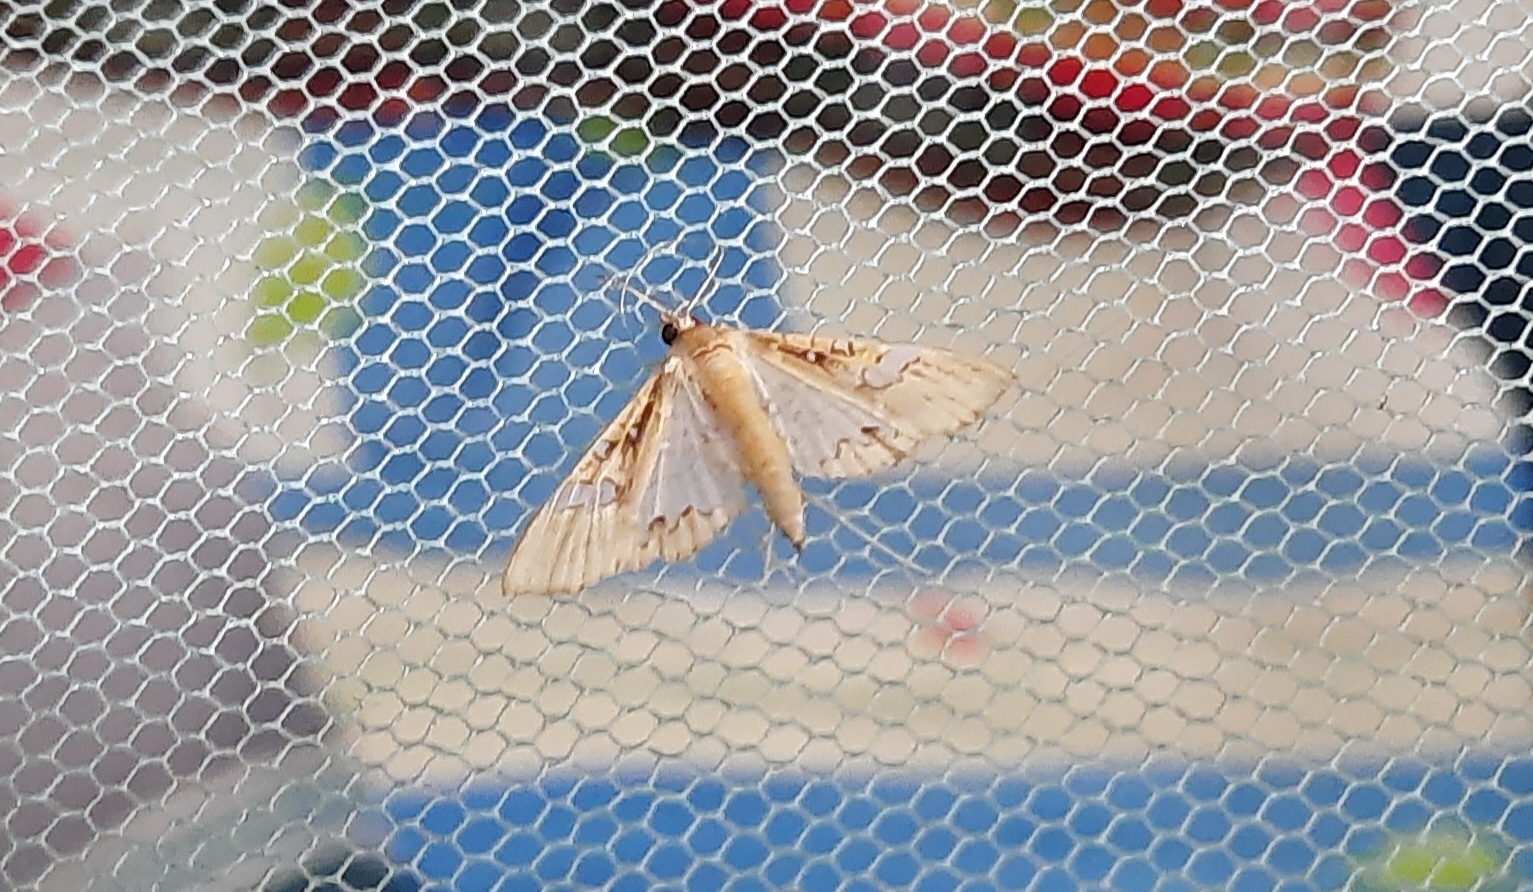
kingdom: Animalia
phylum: Arthropoda
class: Insecta
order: Lepidoptera
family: Crambidae
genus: Maruca
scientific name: Maruca vitrata
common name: Maruca pod borer
